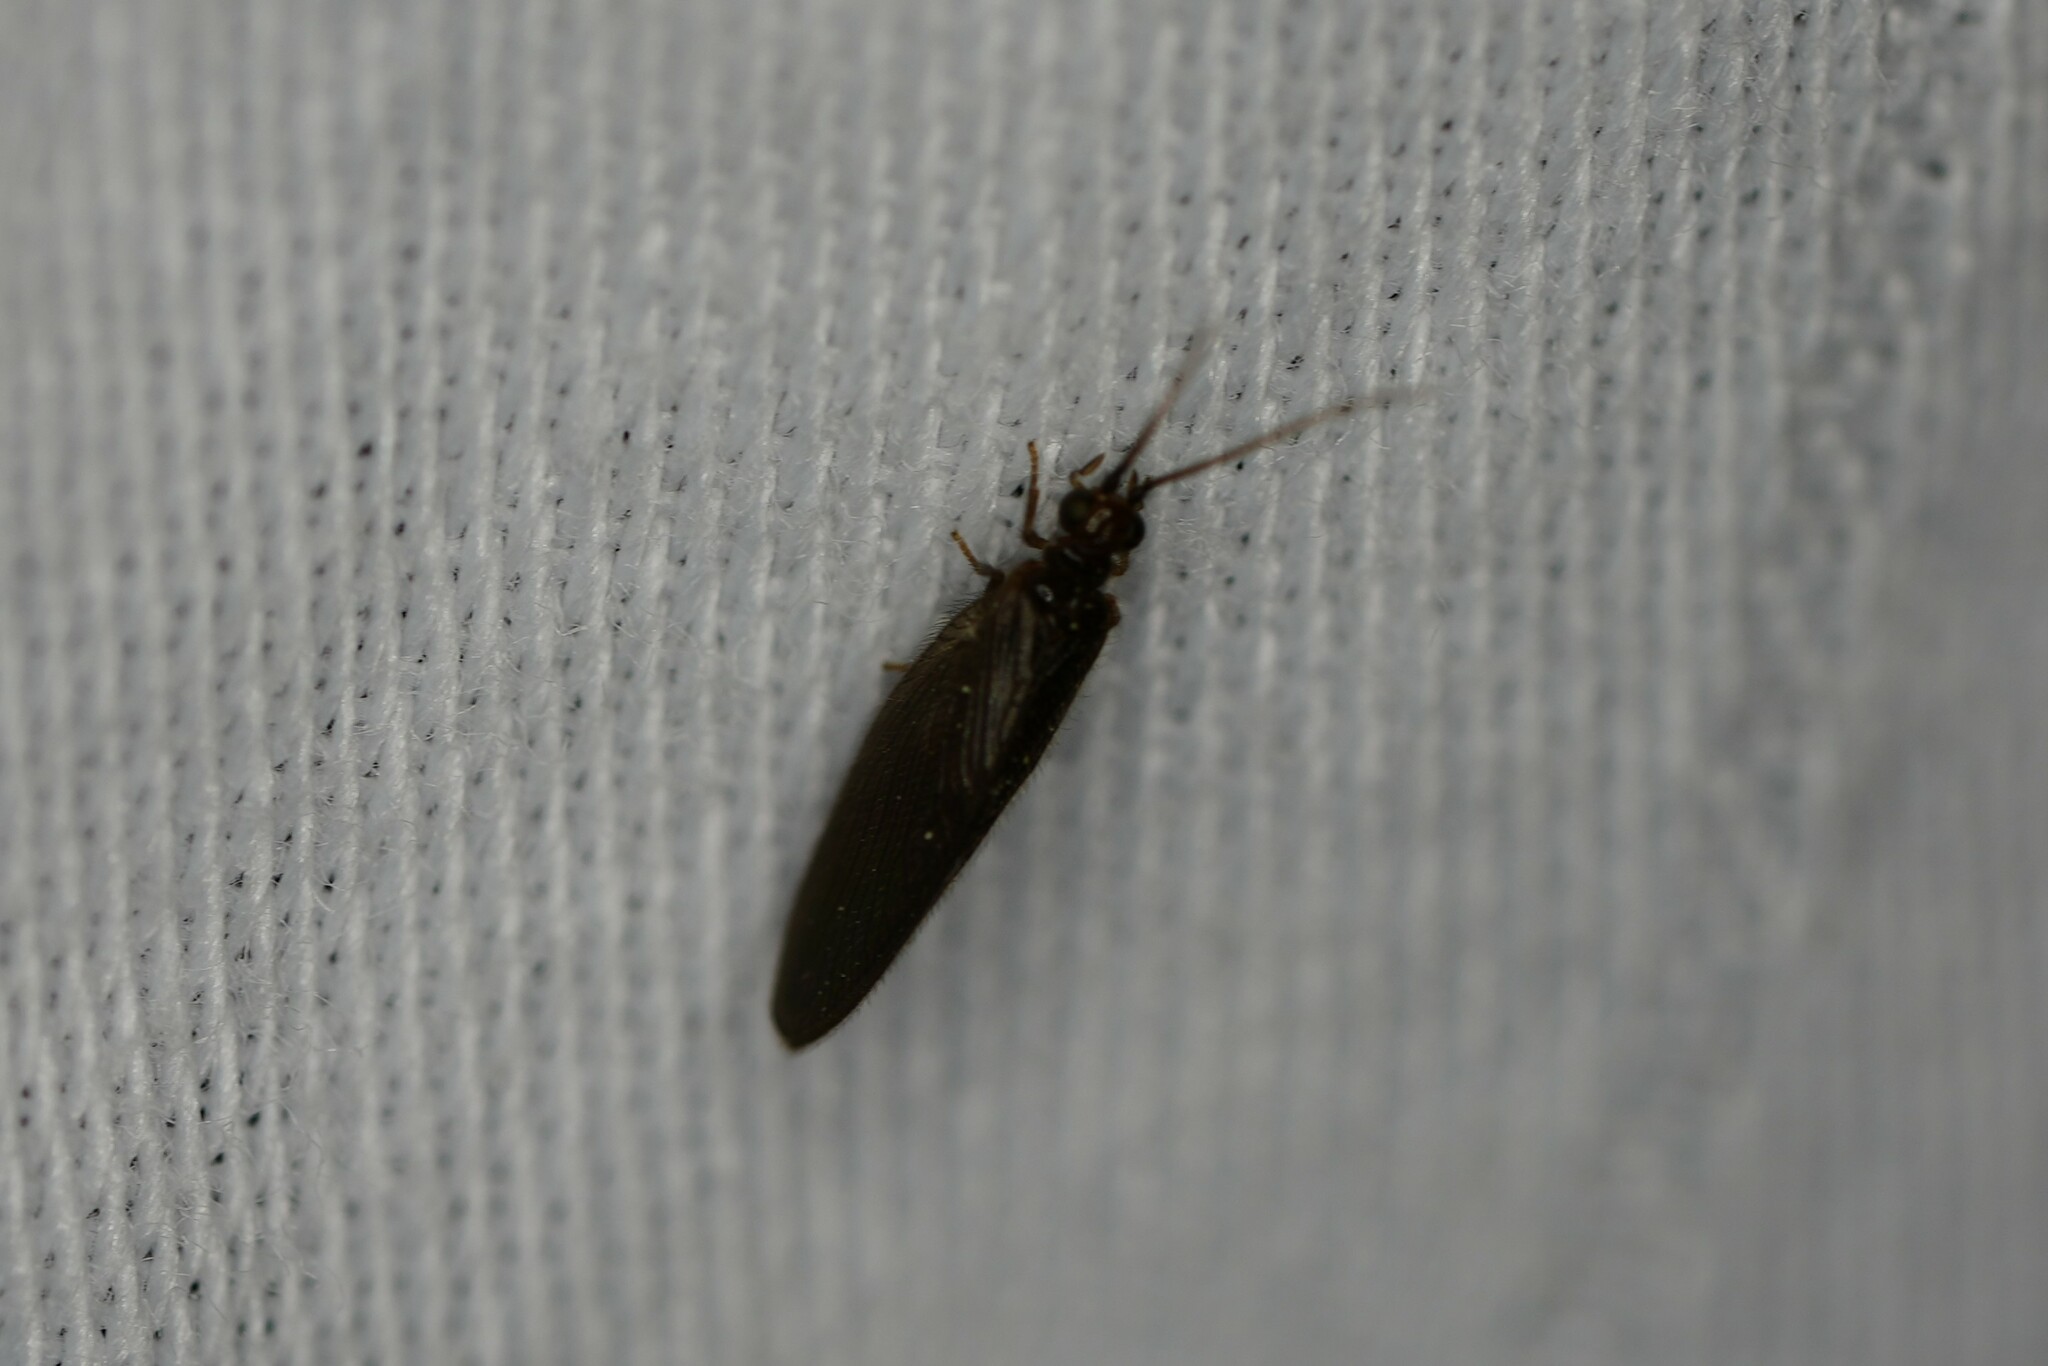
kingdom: Animalia
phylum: Arthropoda
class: Insecta
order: Neuroptera
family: Sisyridae
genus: Sisyra
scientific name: Sisyra vicaria
